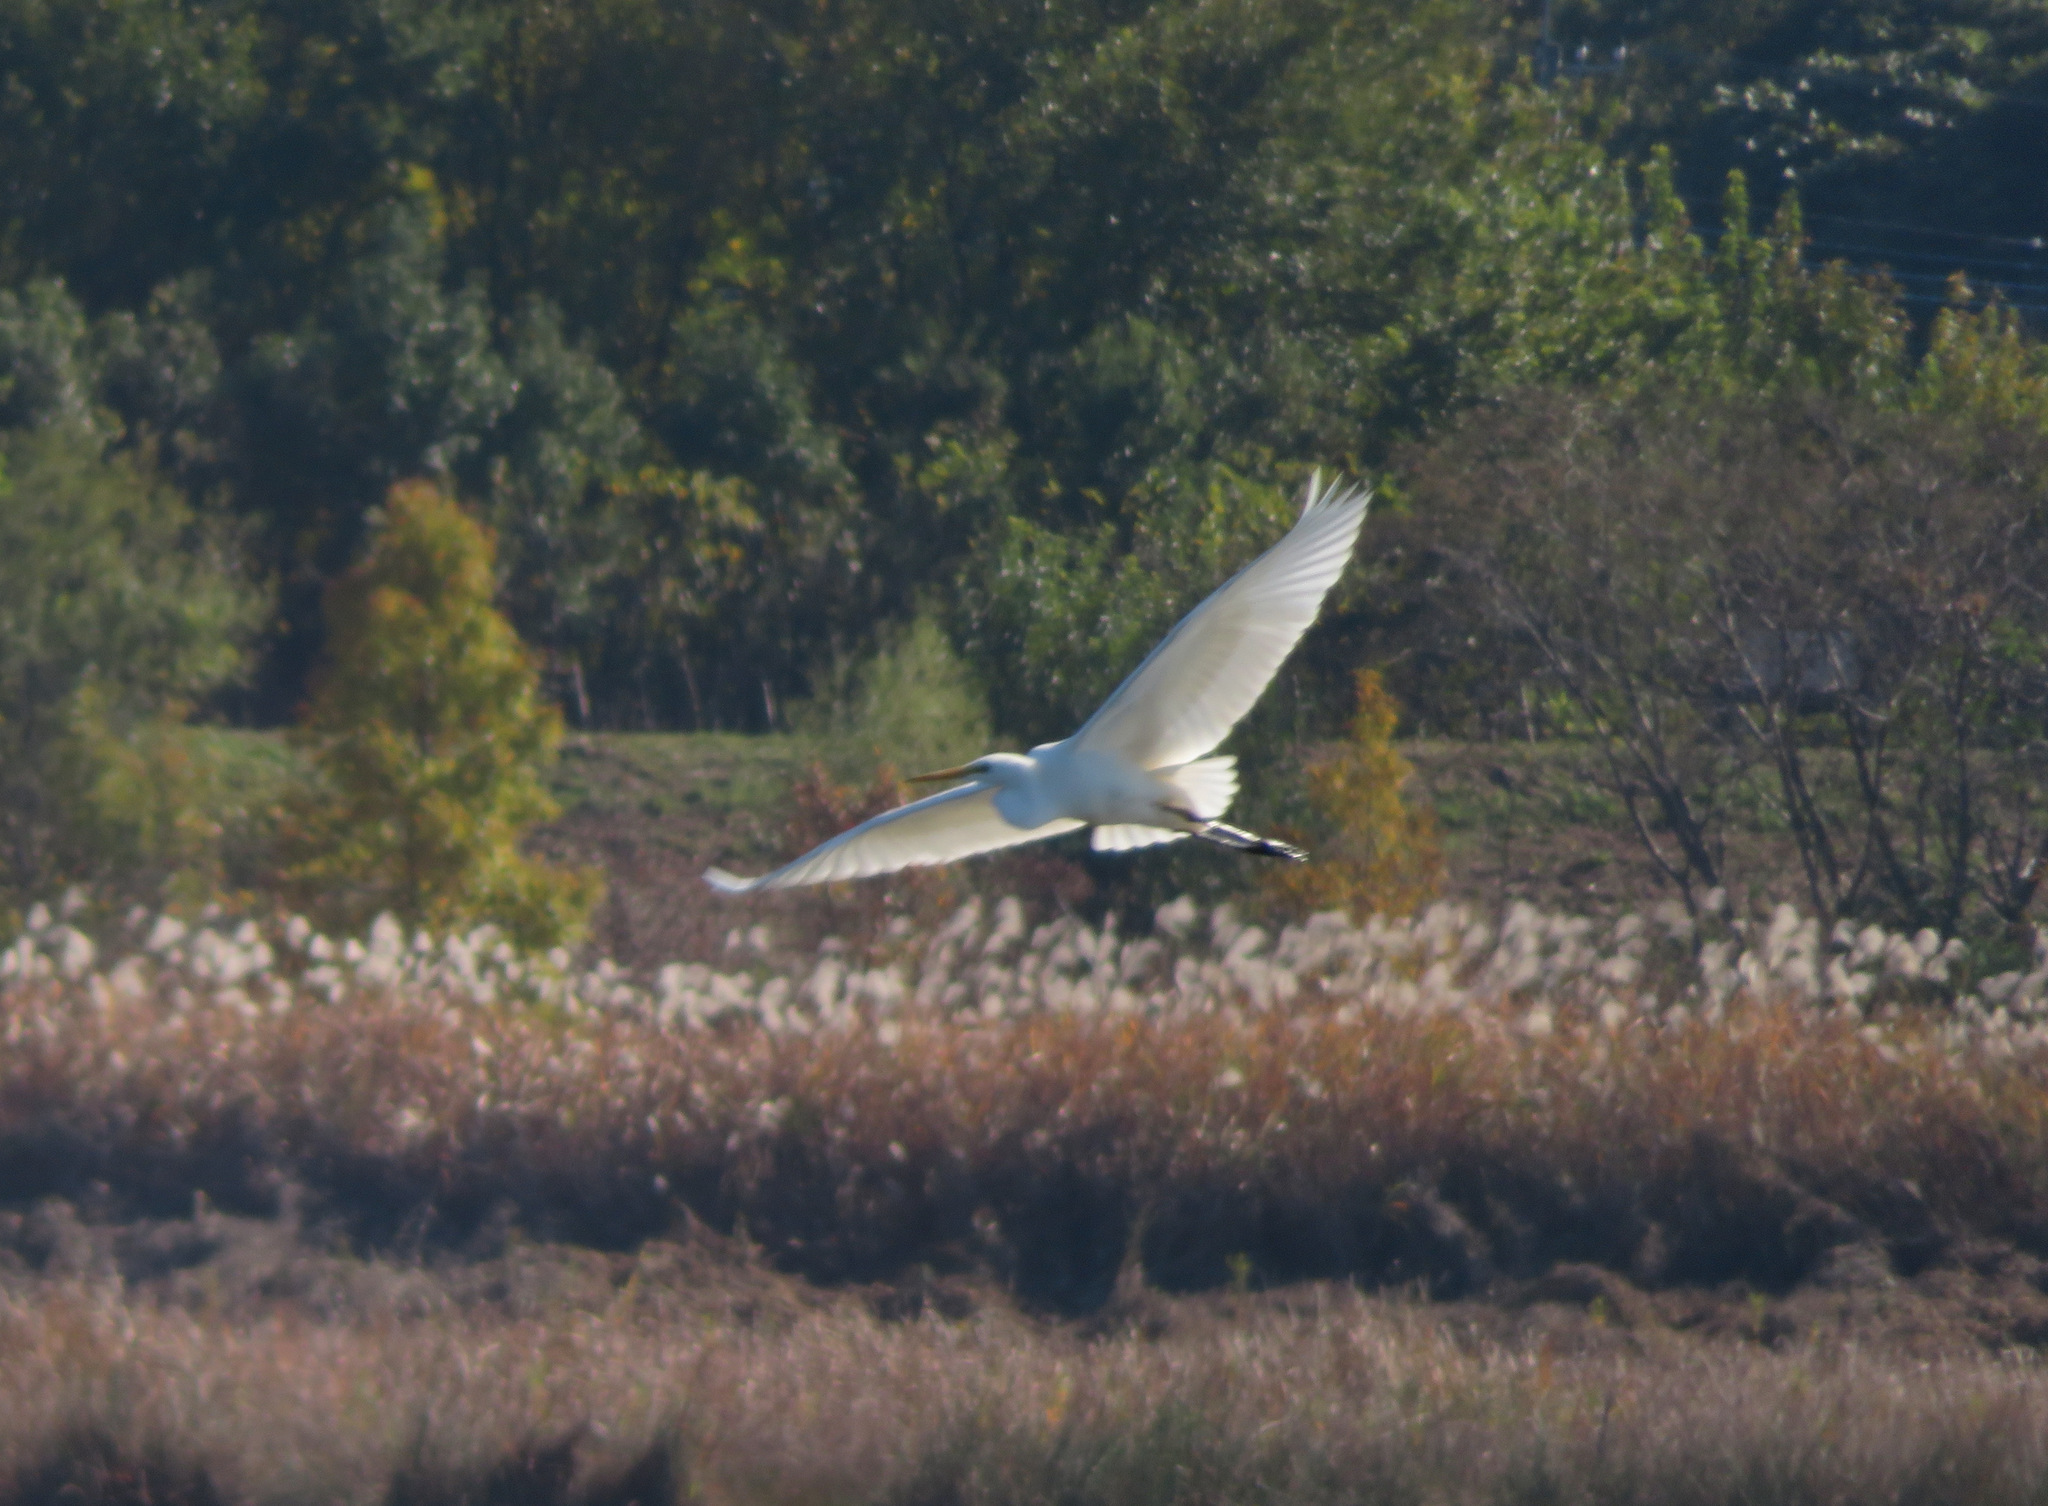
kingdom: Animalia
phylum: Chordata
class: Aves
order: Pelecaniformes
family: Ardeidae
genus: Ardea
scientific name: Ardea alba
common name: Great egret
